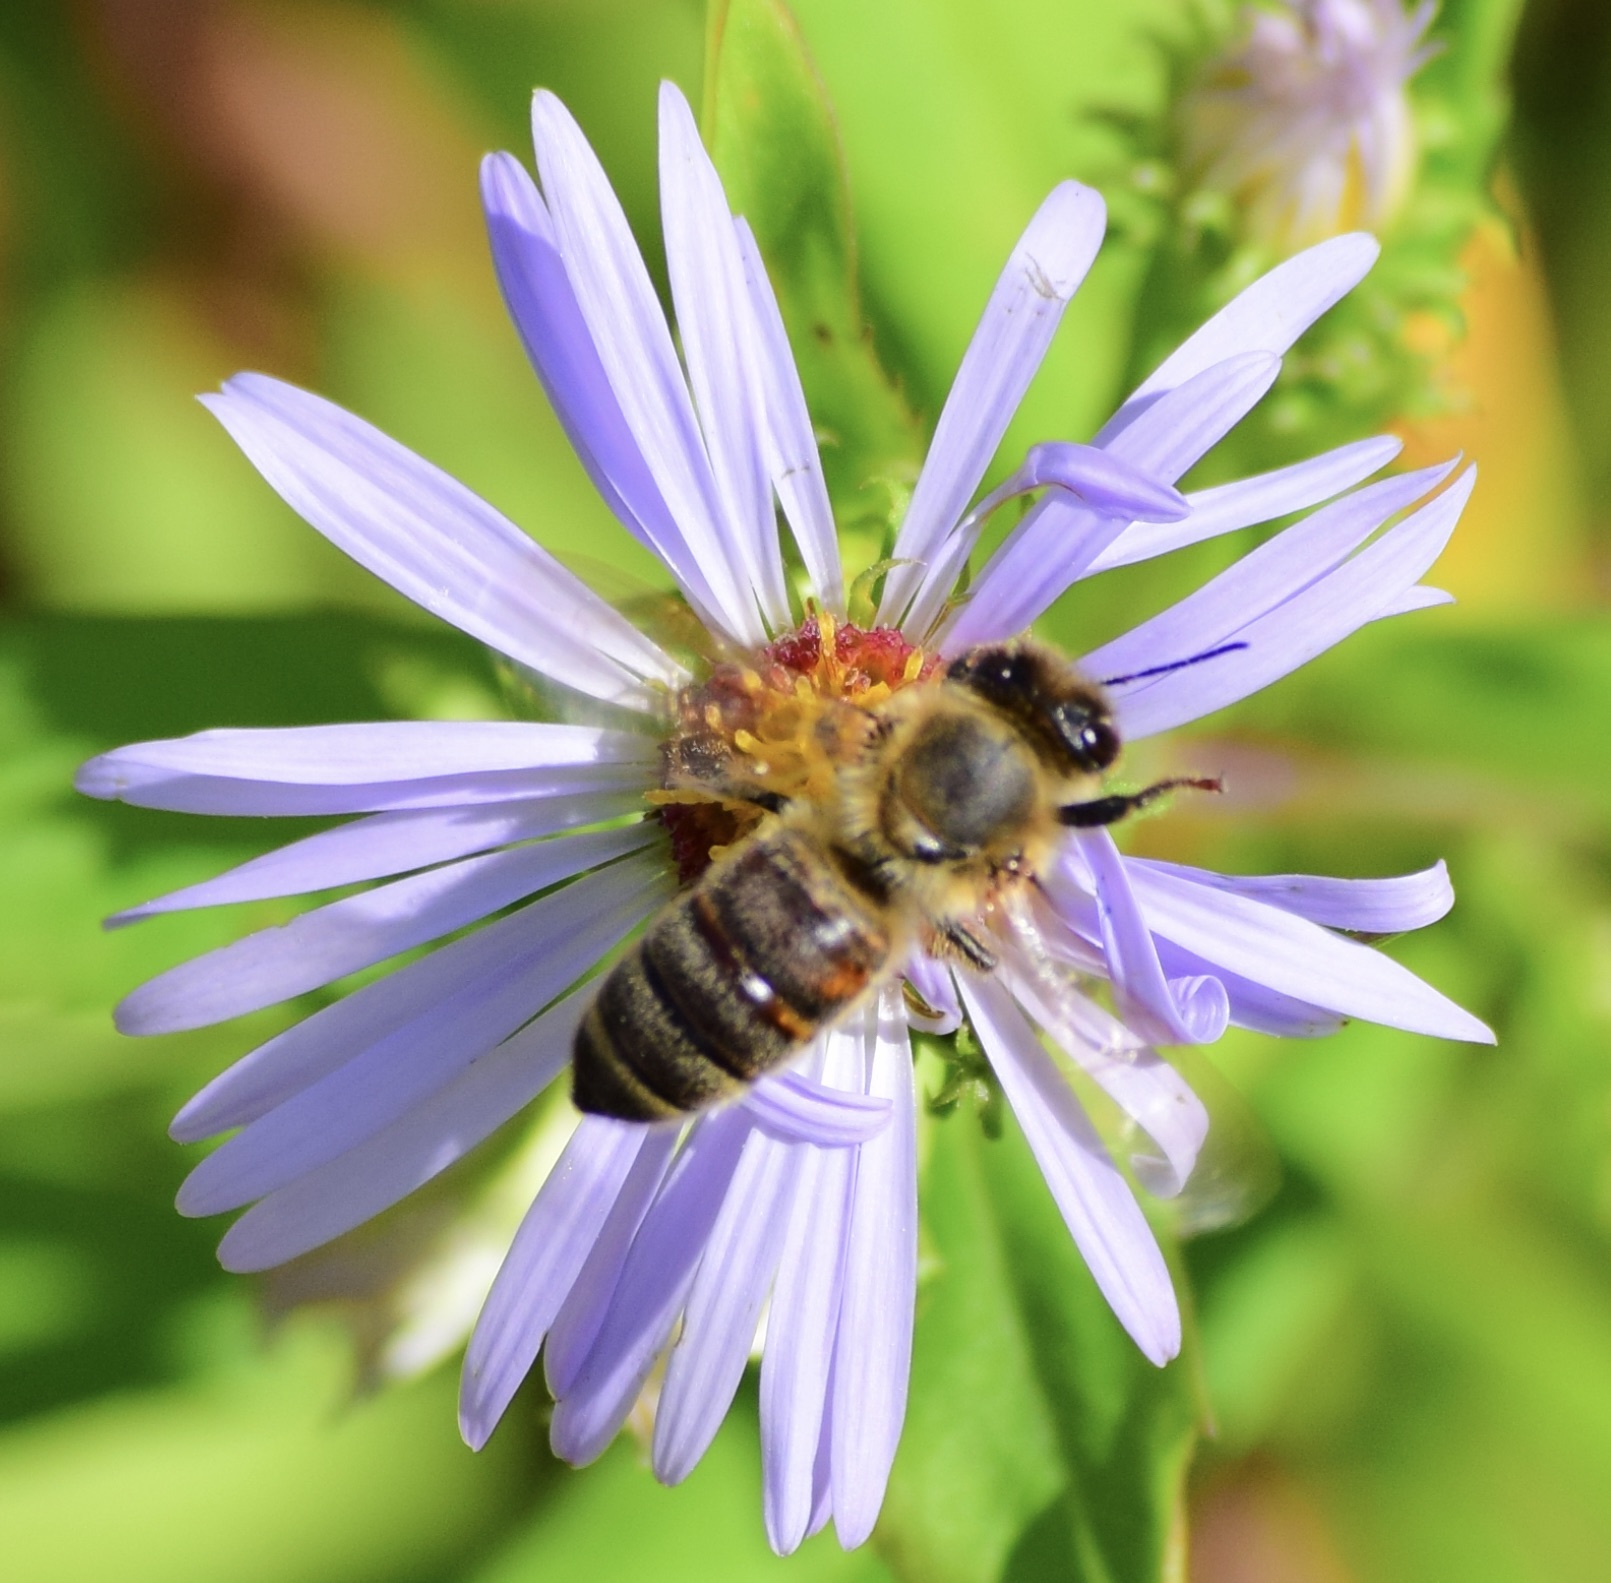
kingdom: Animalia
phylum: Arthropoda
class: Insecta
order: Hymenoptera
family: Apidae
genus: Apis
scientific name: Apis mellifera
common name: Honey bee
